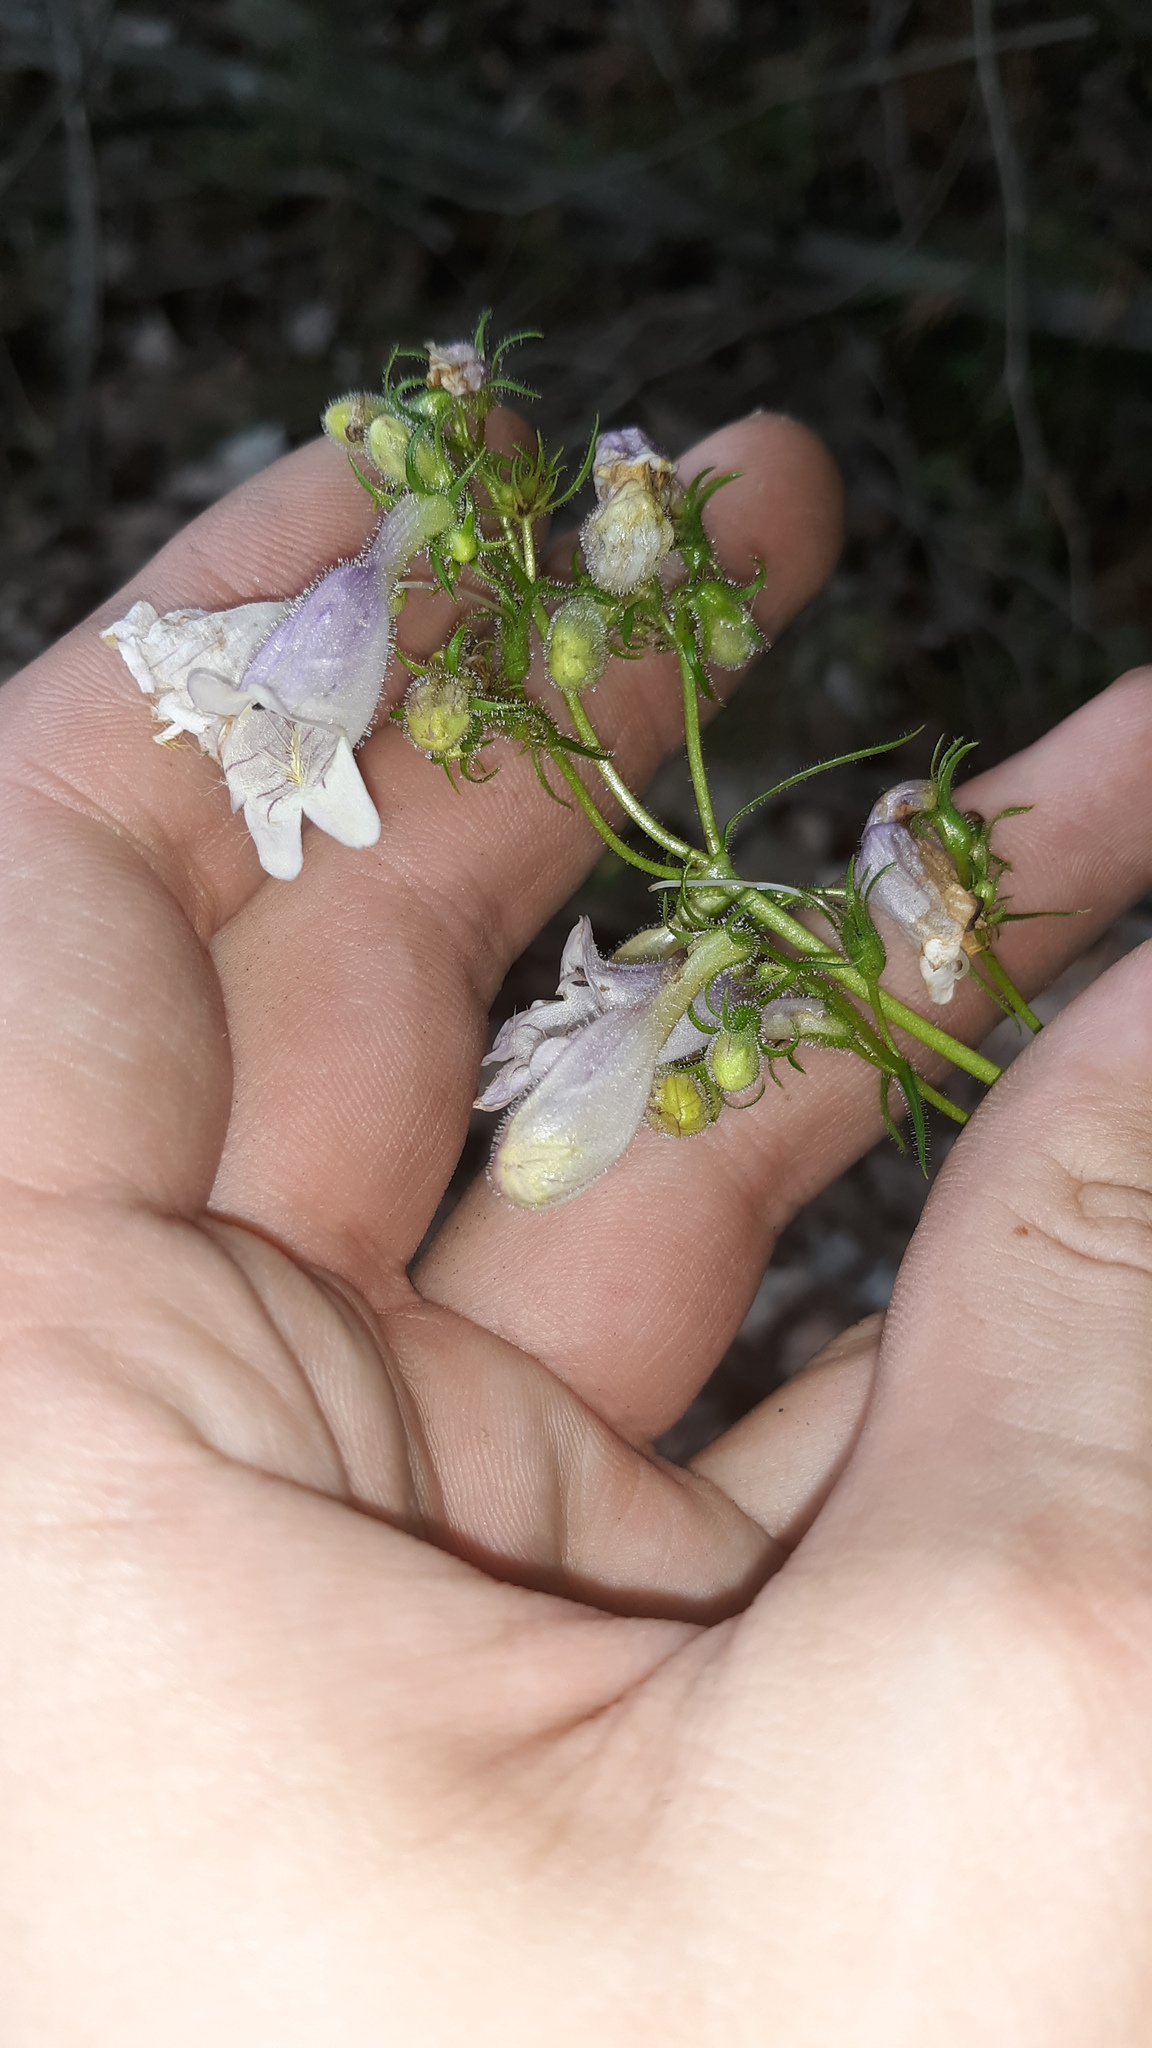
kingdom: Plantae
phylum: Tracheophyta
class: Magnoliopsida
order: Lamiales
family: Plantaginaceae
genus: Penstemon
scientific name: Penstemon digitalis
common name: Foxglove beardtongue
